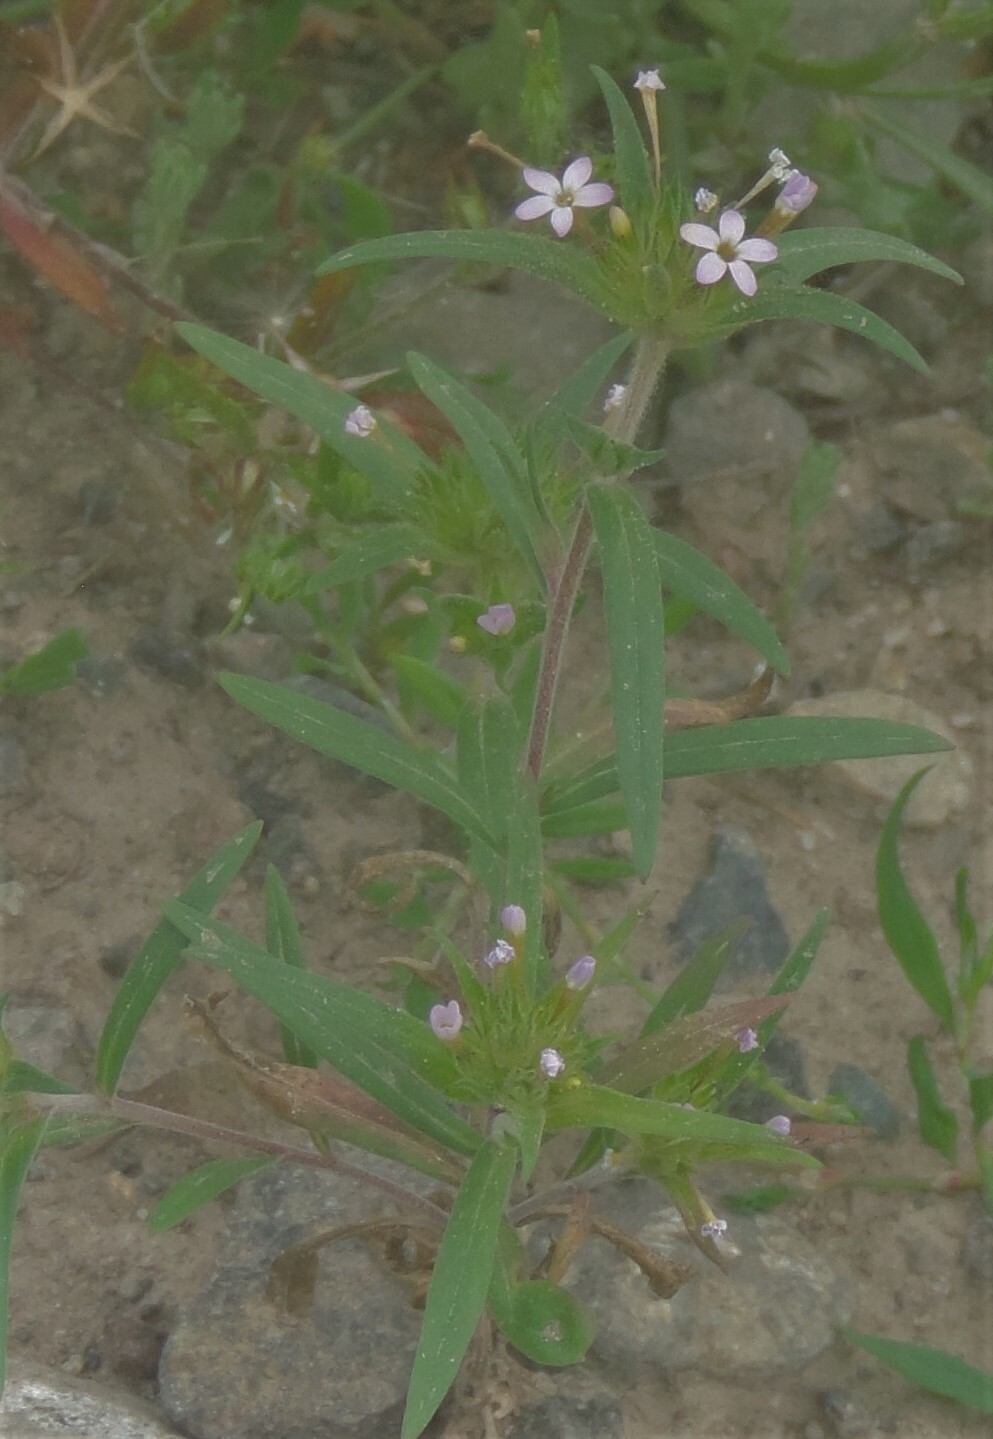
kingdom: Plantae
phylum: Tracheophyta
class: Magnoliopsida
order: Ericales
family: Polemoniaceae
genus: Collomia
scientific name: Collomia linearis
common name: Tiny trumpet
